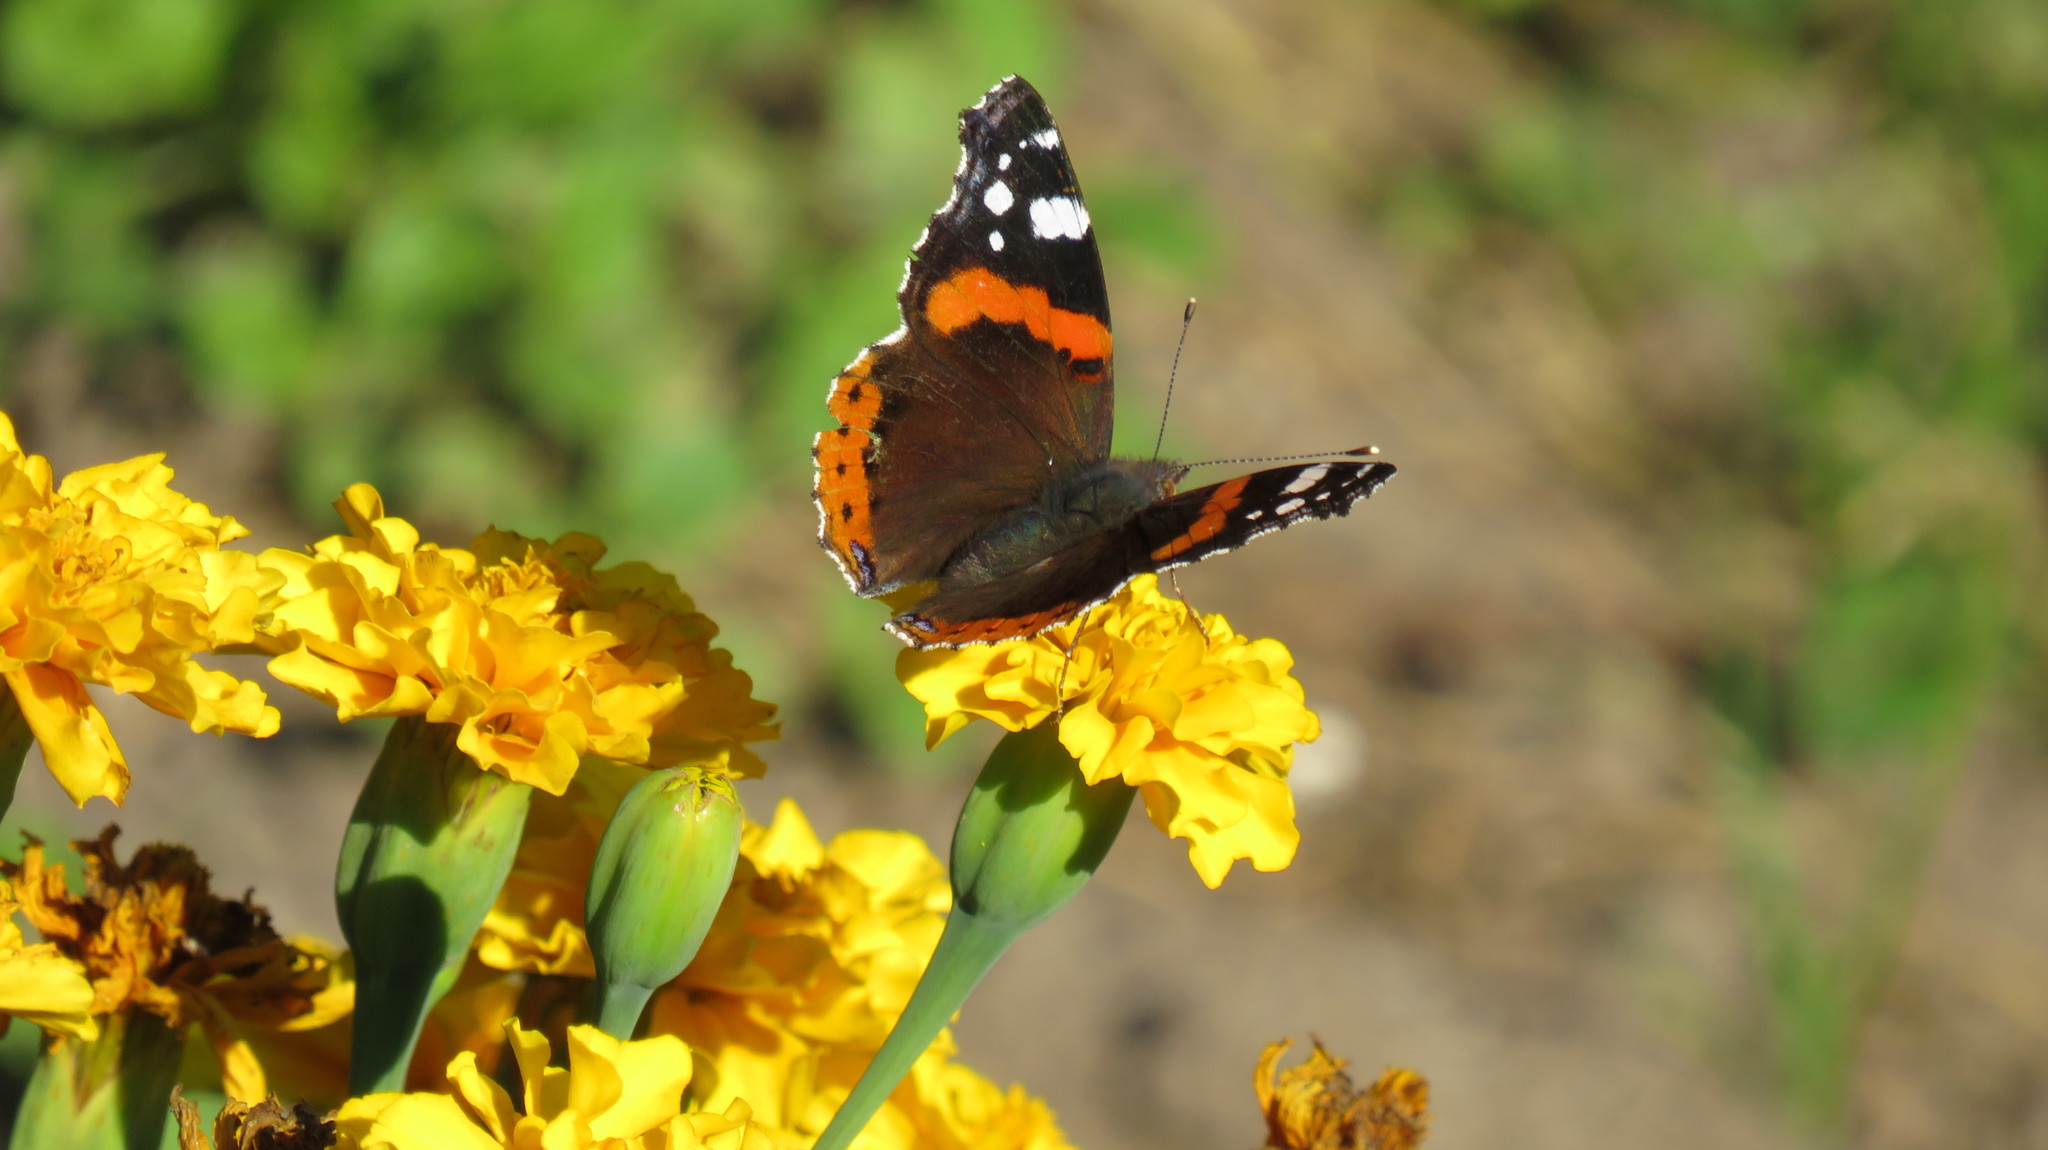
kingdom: Animalia
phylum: Arthropoda
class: Insecta
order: Lepidoptera
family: Nymphalidae
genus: Vanessa
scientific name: Vanessa atalanta
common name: Red admiral
